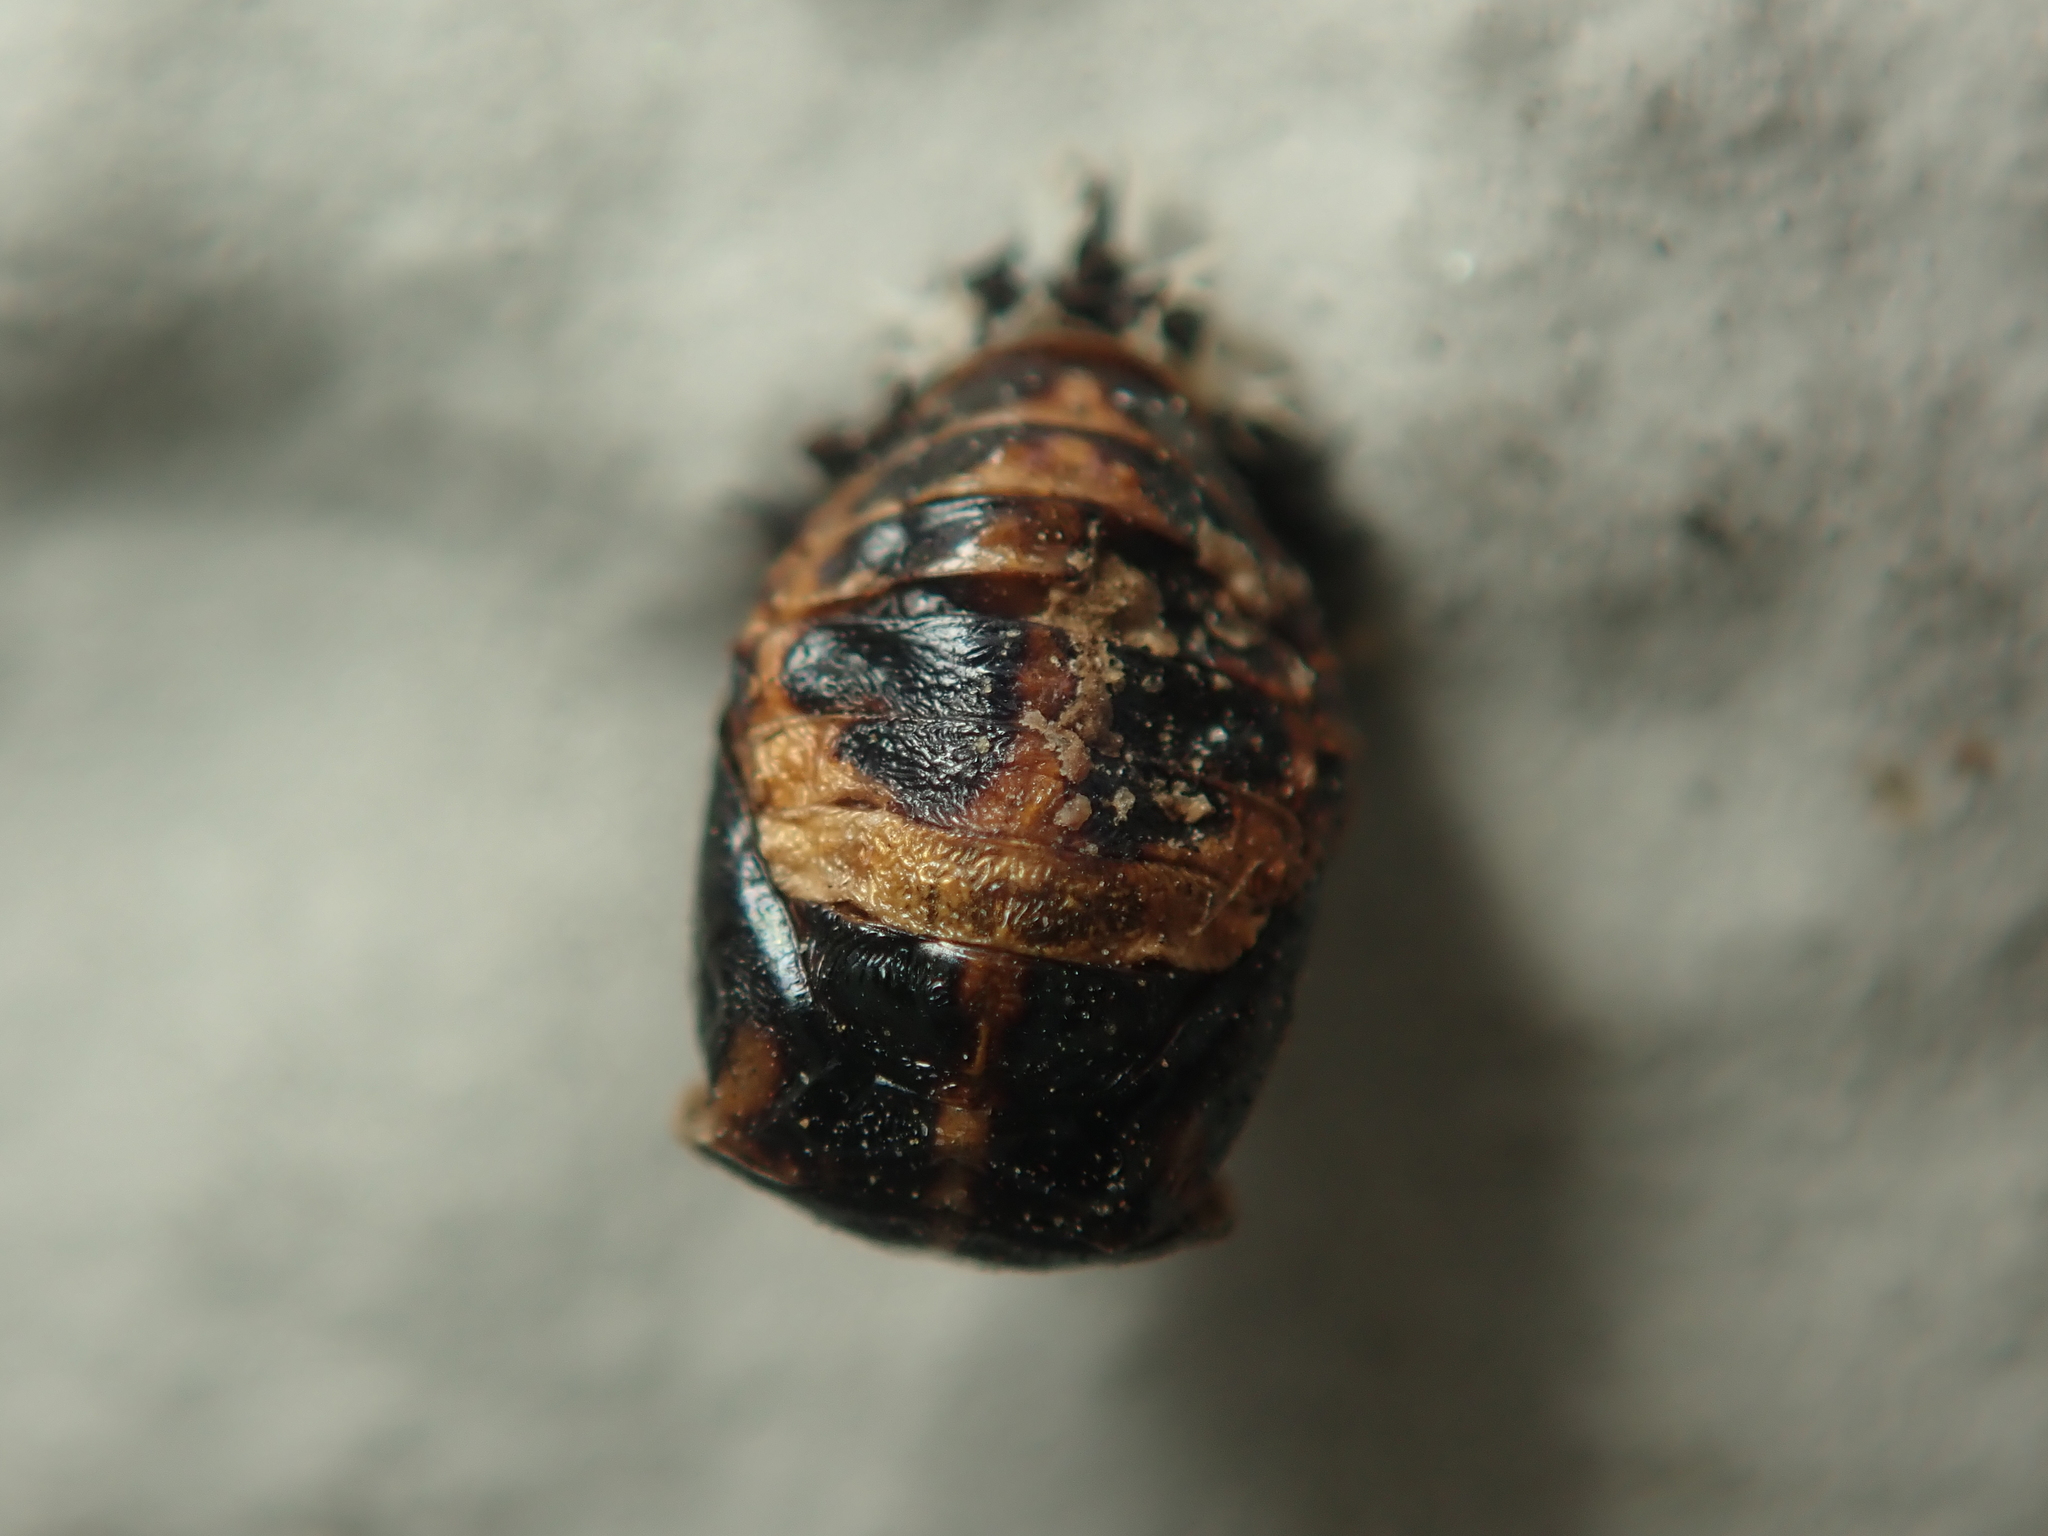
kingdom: Animalia
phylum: Arthropoda
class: Insecta
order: Coleoptera
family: Coccinellidae
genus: Harmonia
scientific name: Harmonia axyridis
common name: Harlequin ladybird
